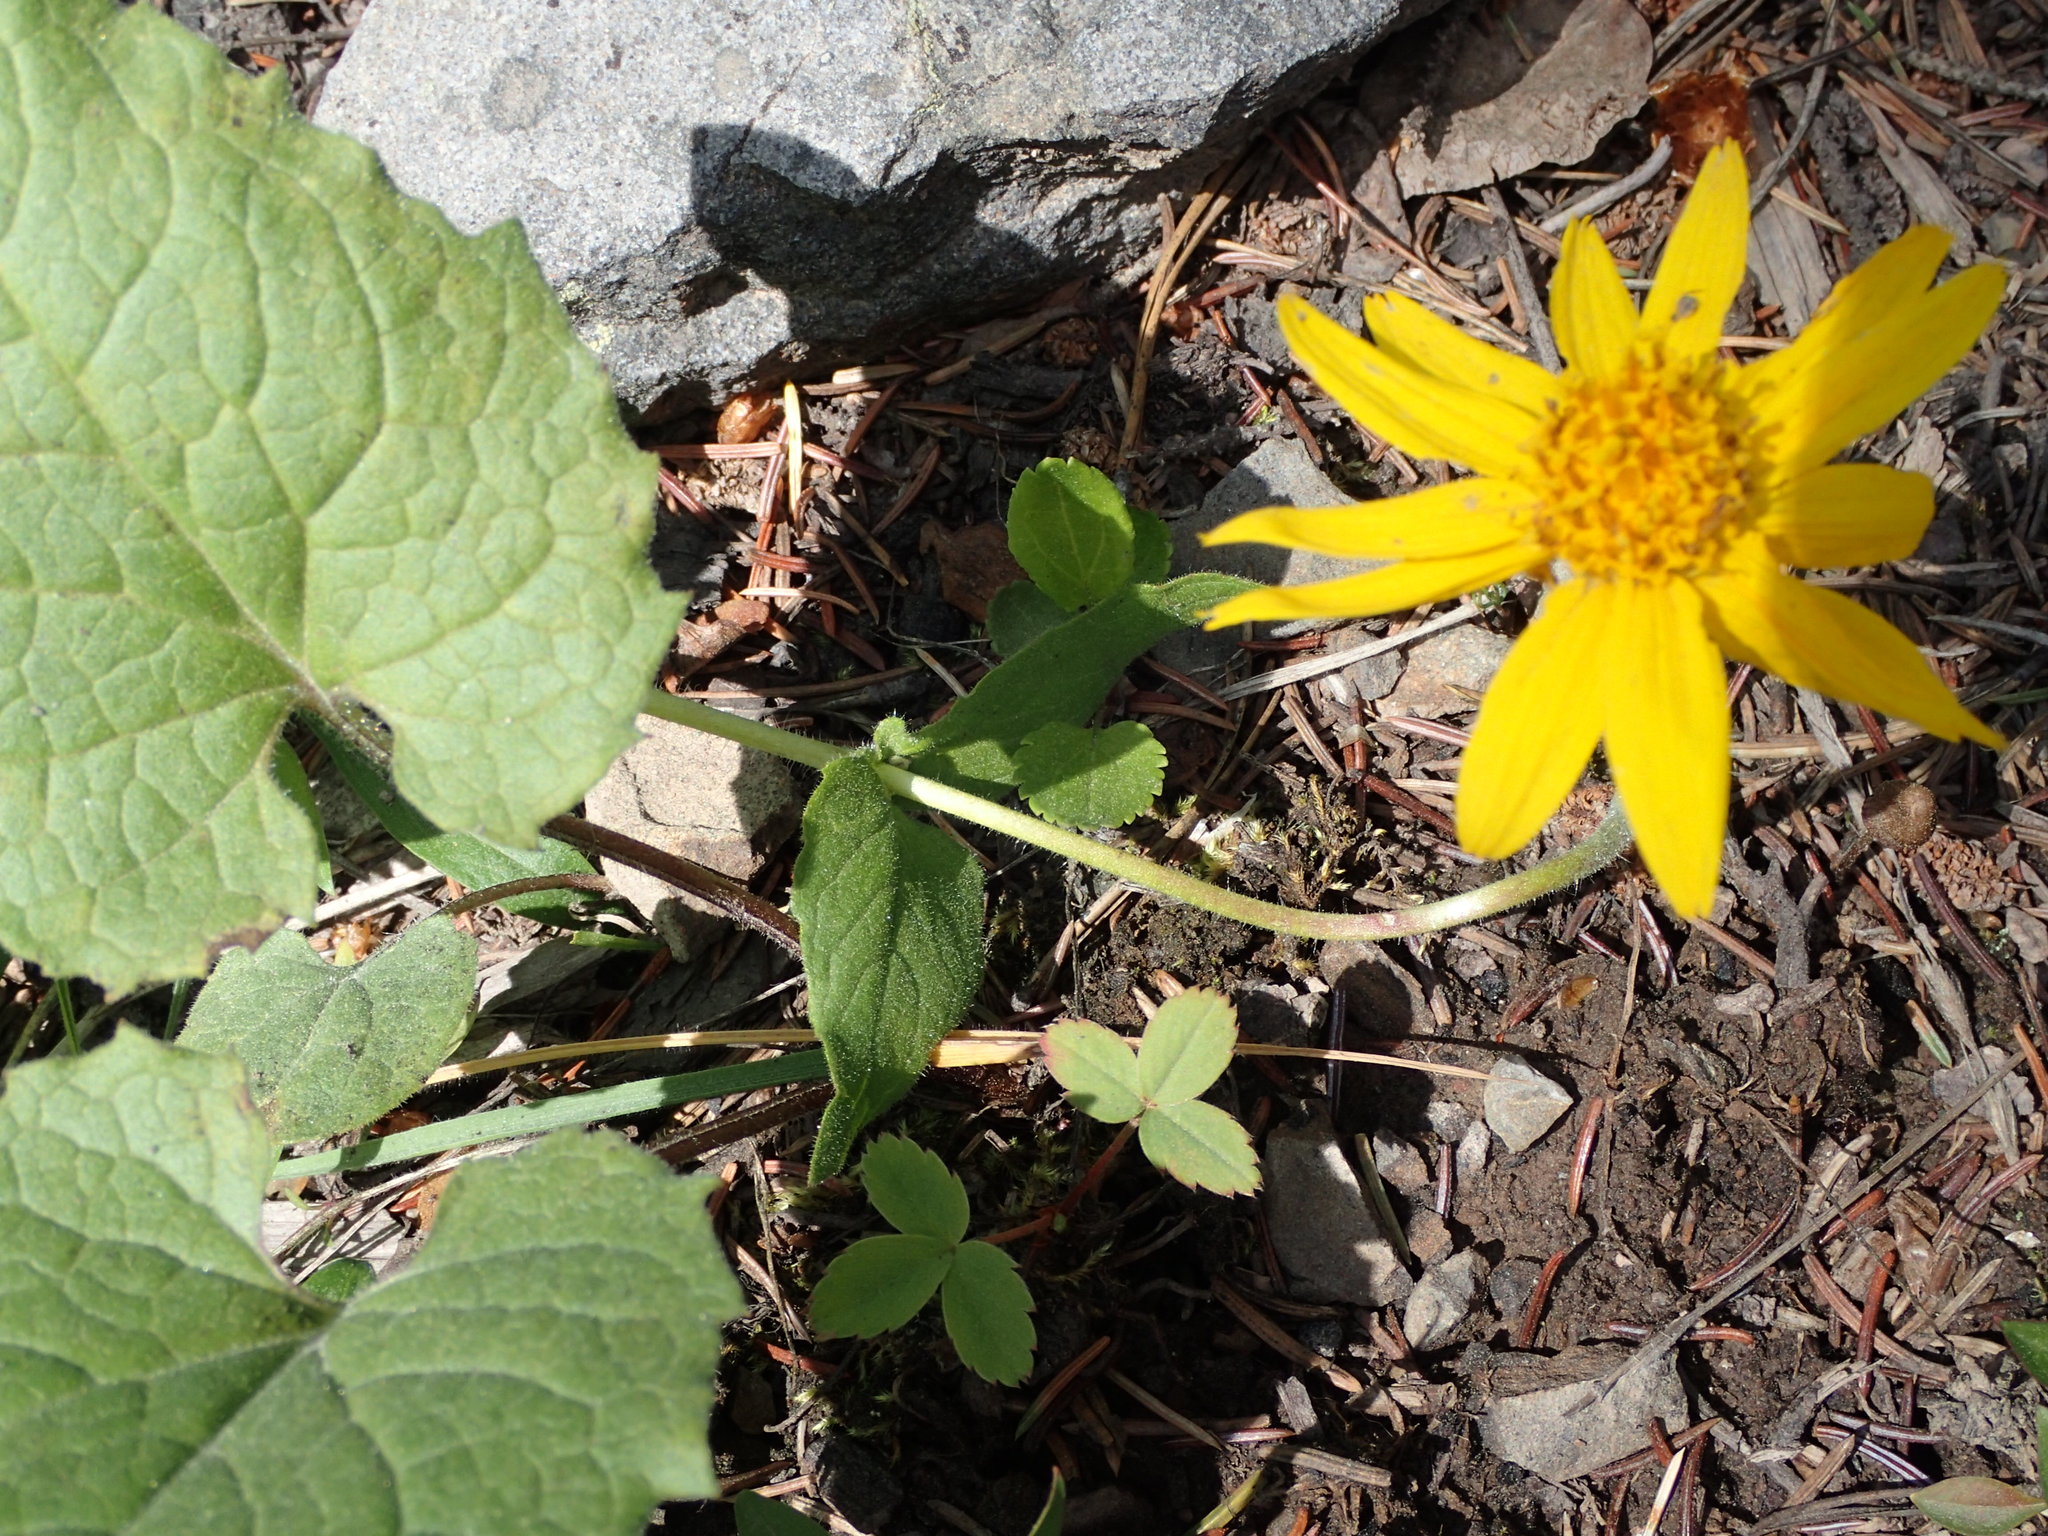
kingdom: Plantae
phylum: Tracheophyta
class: Magnoliopsida
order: Asterales
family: Asteraceae
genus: Arnica
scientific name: Arnica cordifolia
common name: Heart-leaf arnica
